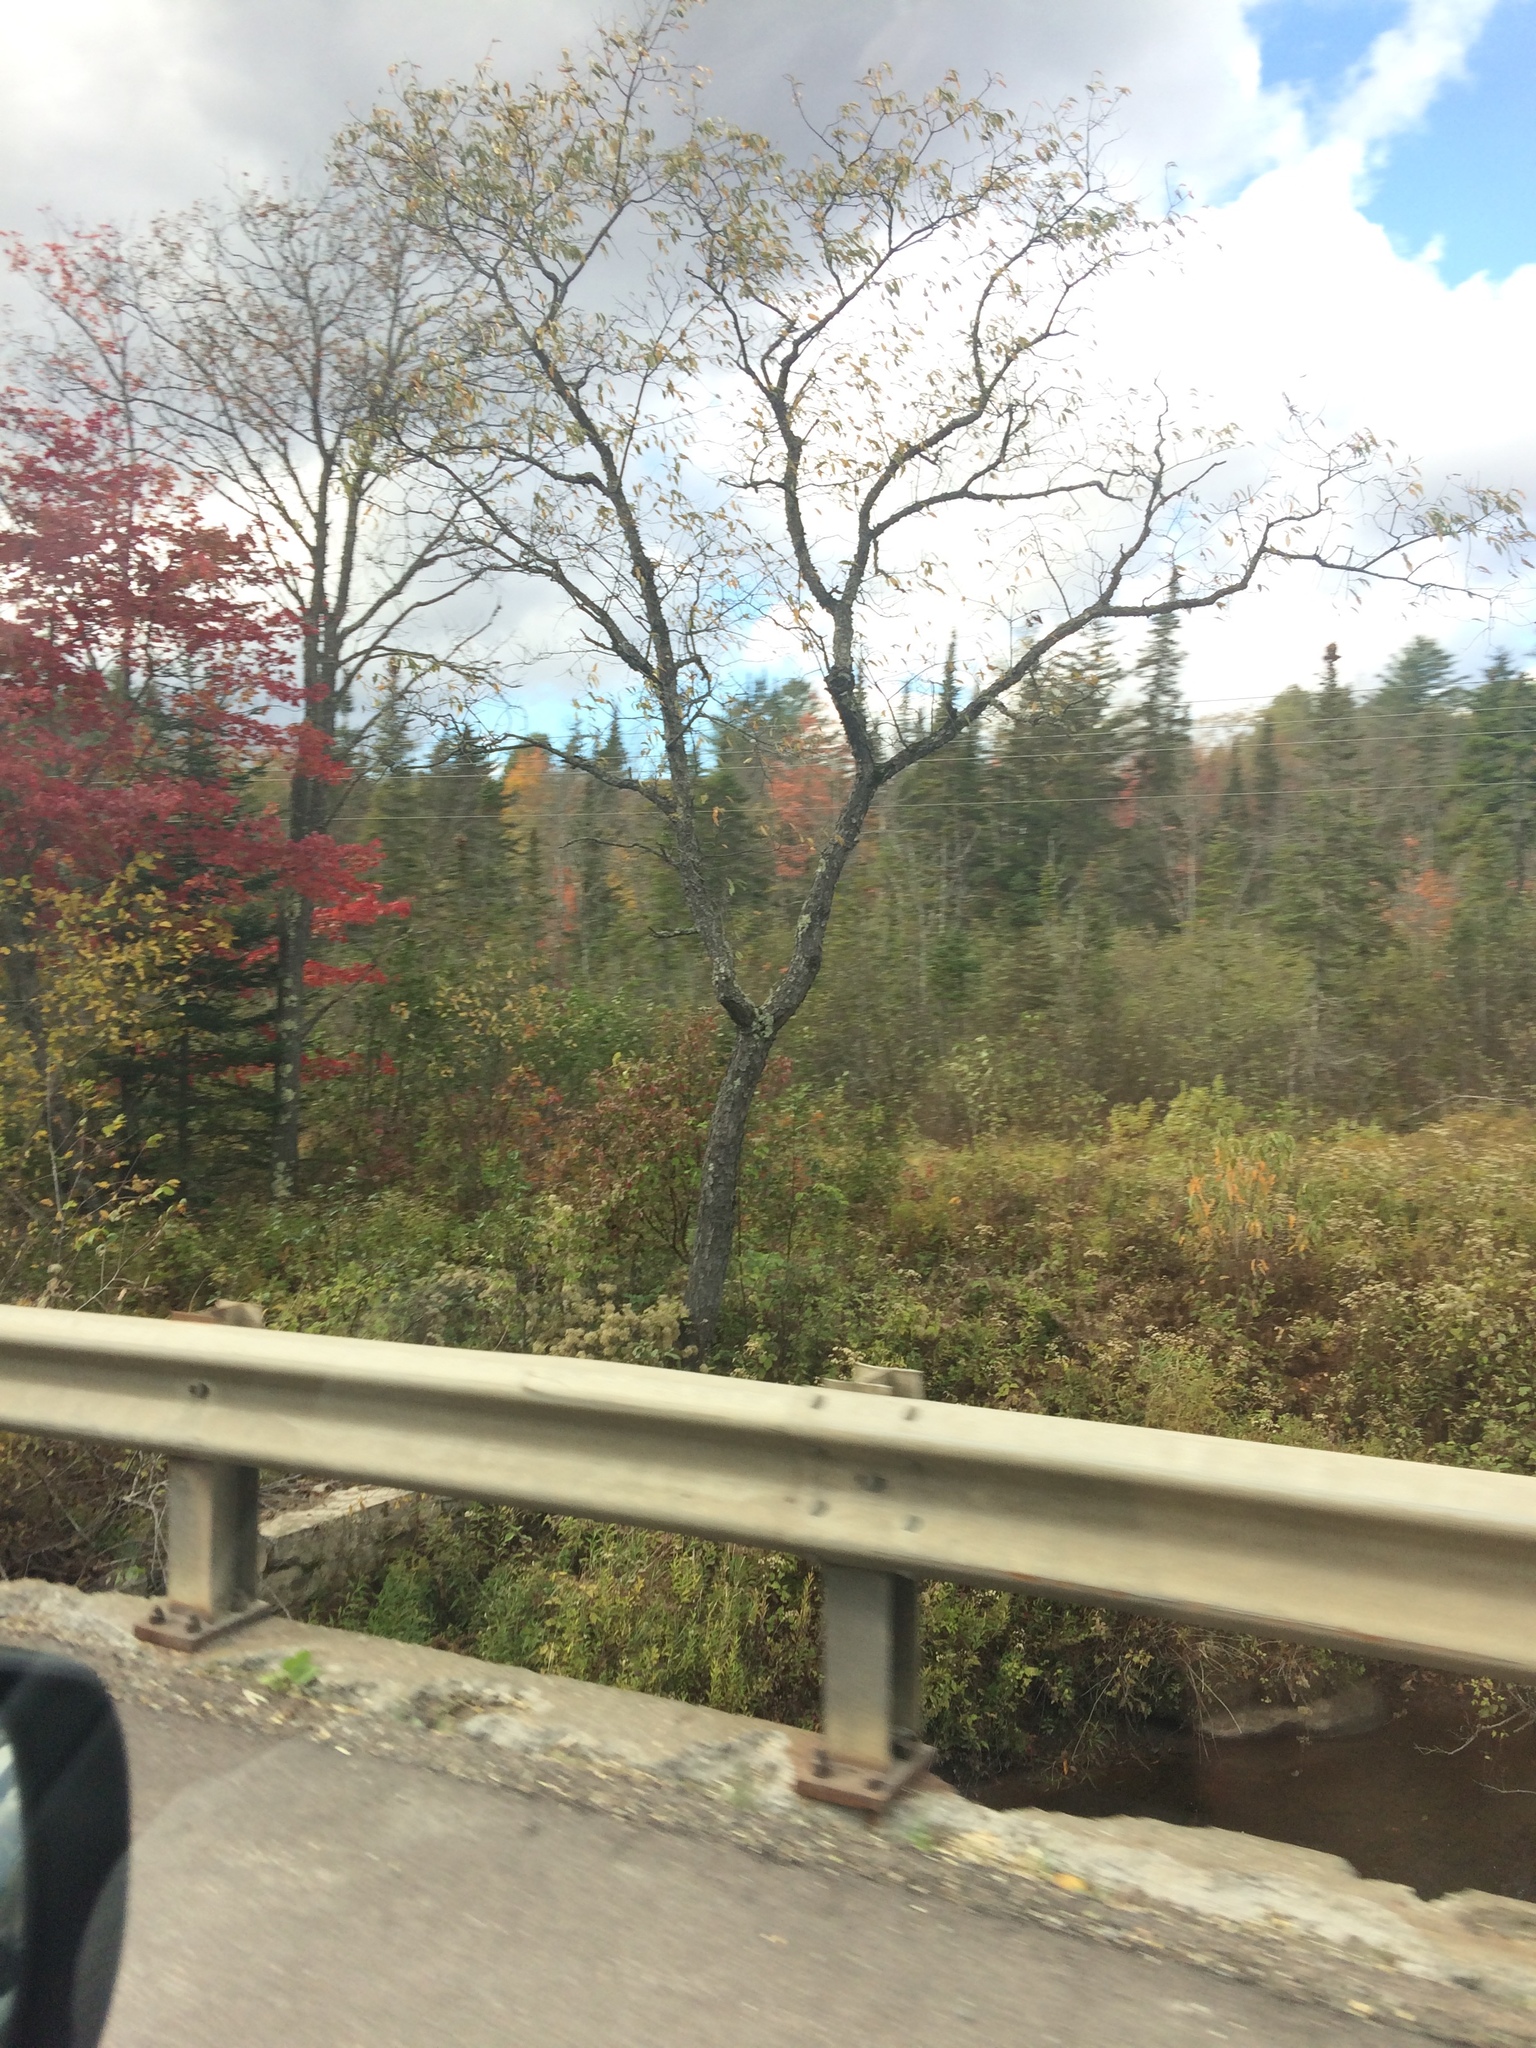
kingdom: Plantae
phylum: Tracheophyta
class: Magnoliopsida
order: Rosales
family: Rosaceae
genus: Prunus
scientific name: Prunus serotina
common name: Black cherry
